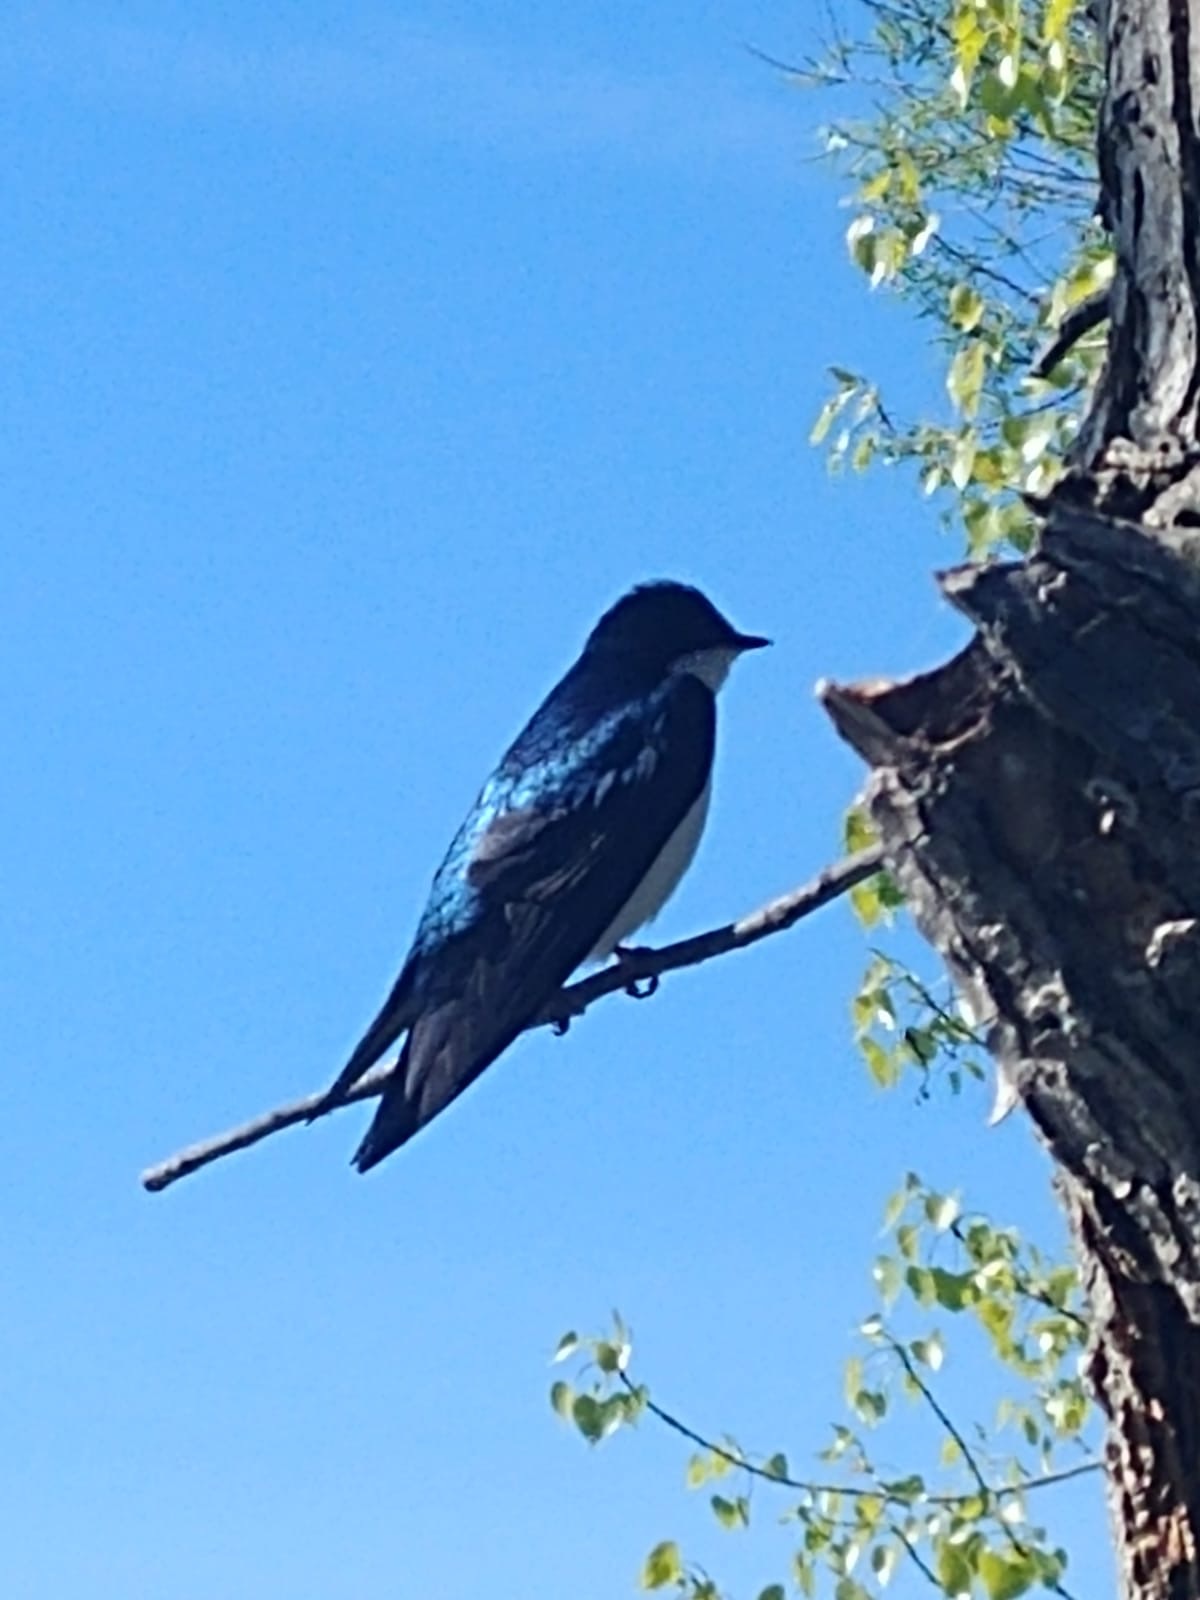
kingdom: Animalia
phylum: Chordata
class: Aves
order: Passeriformes
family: Hirundinidae
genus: Tachycineta
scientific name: Tachycineta bicolor
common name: Tree swallow
